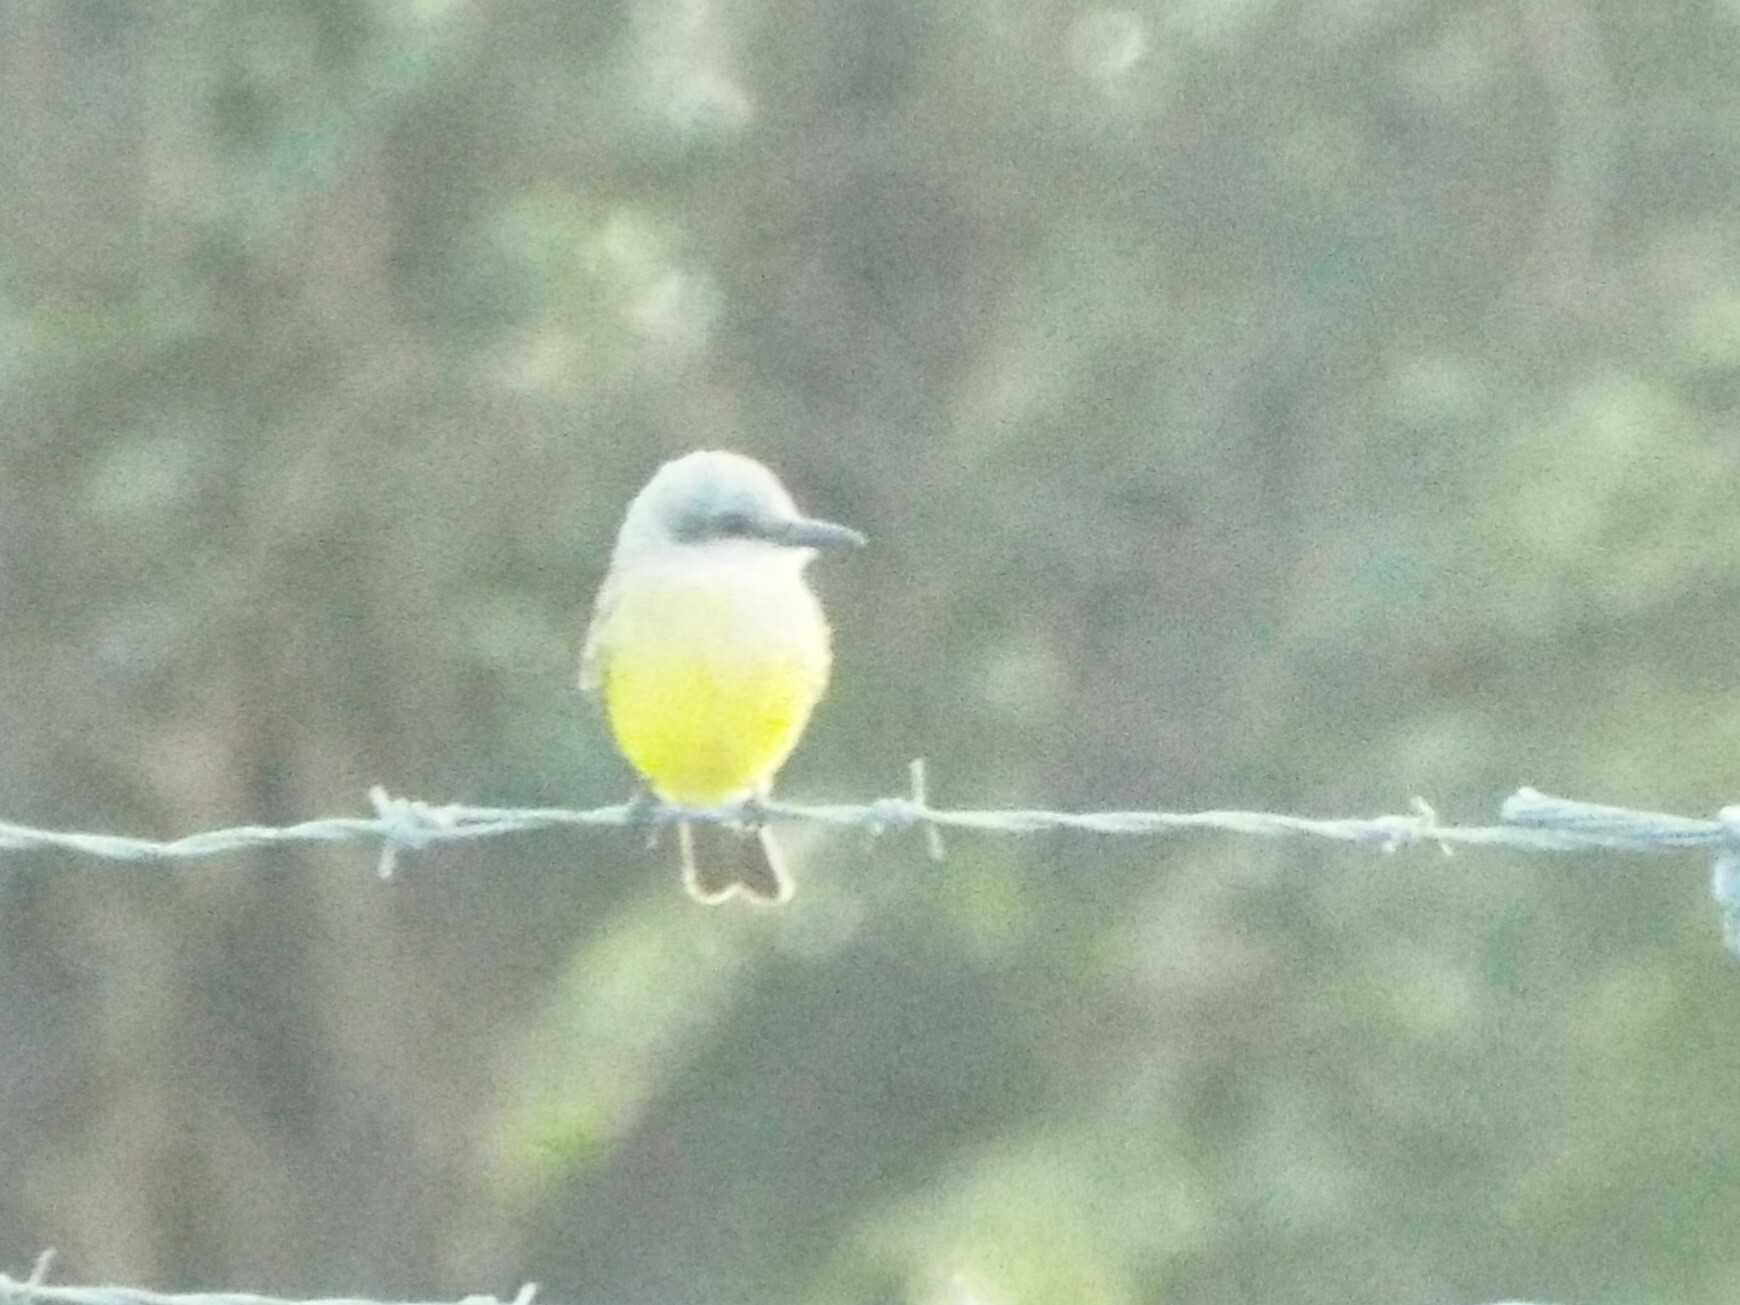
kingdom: Animalia
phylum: Chordata
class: Aves
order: Passeriformes
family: Tyrannidae
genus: Tyrannus
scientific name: Tyrannus melancholicus
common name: Tropical kingbird
